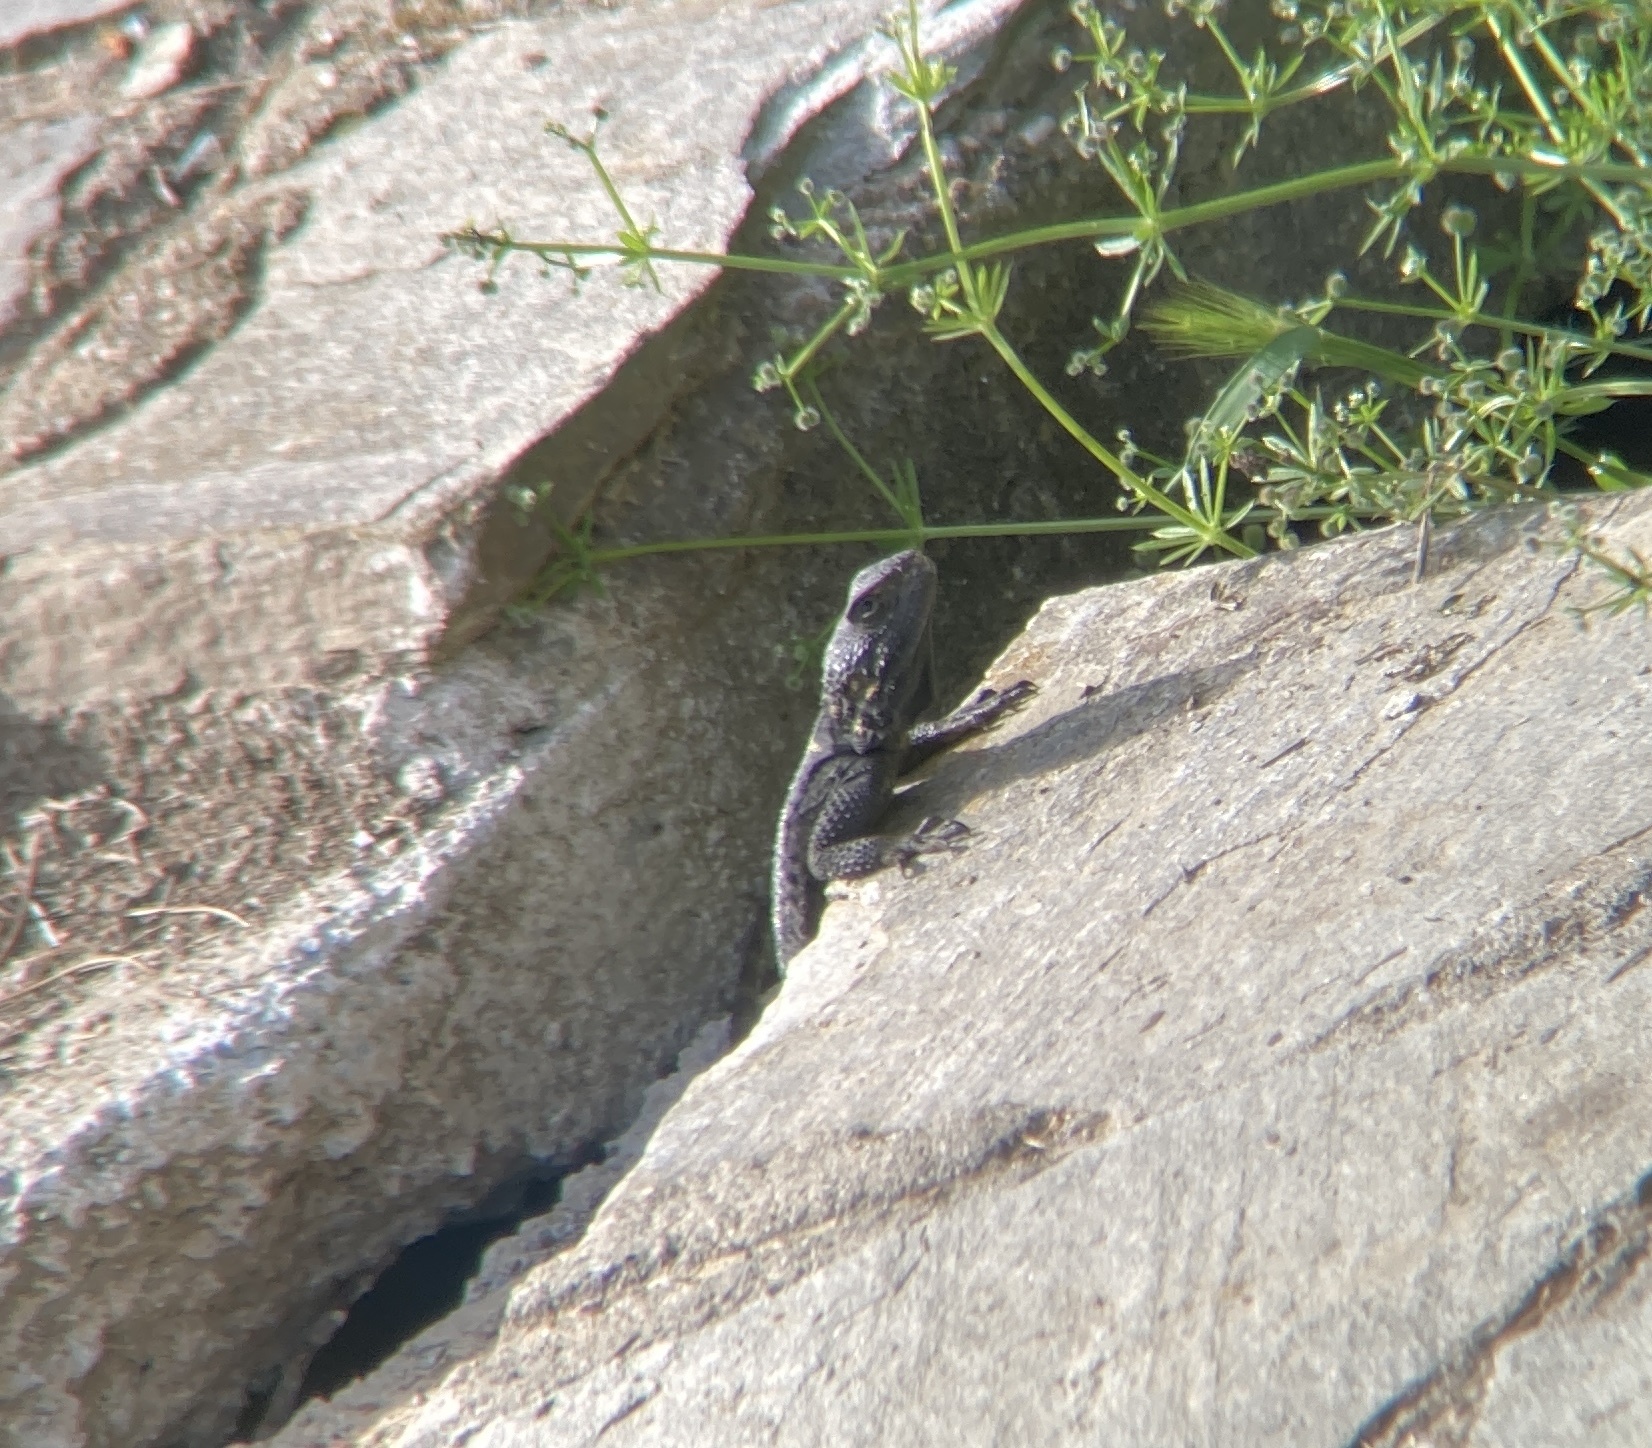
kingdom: Animalia
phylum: Chordata
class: Squamata
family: Agamidae
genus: Stellagama
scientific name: Stellagama stellio
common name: Starred agama
